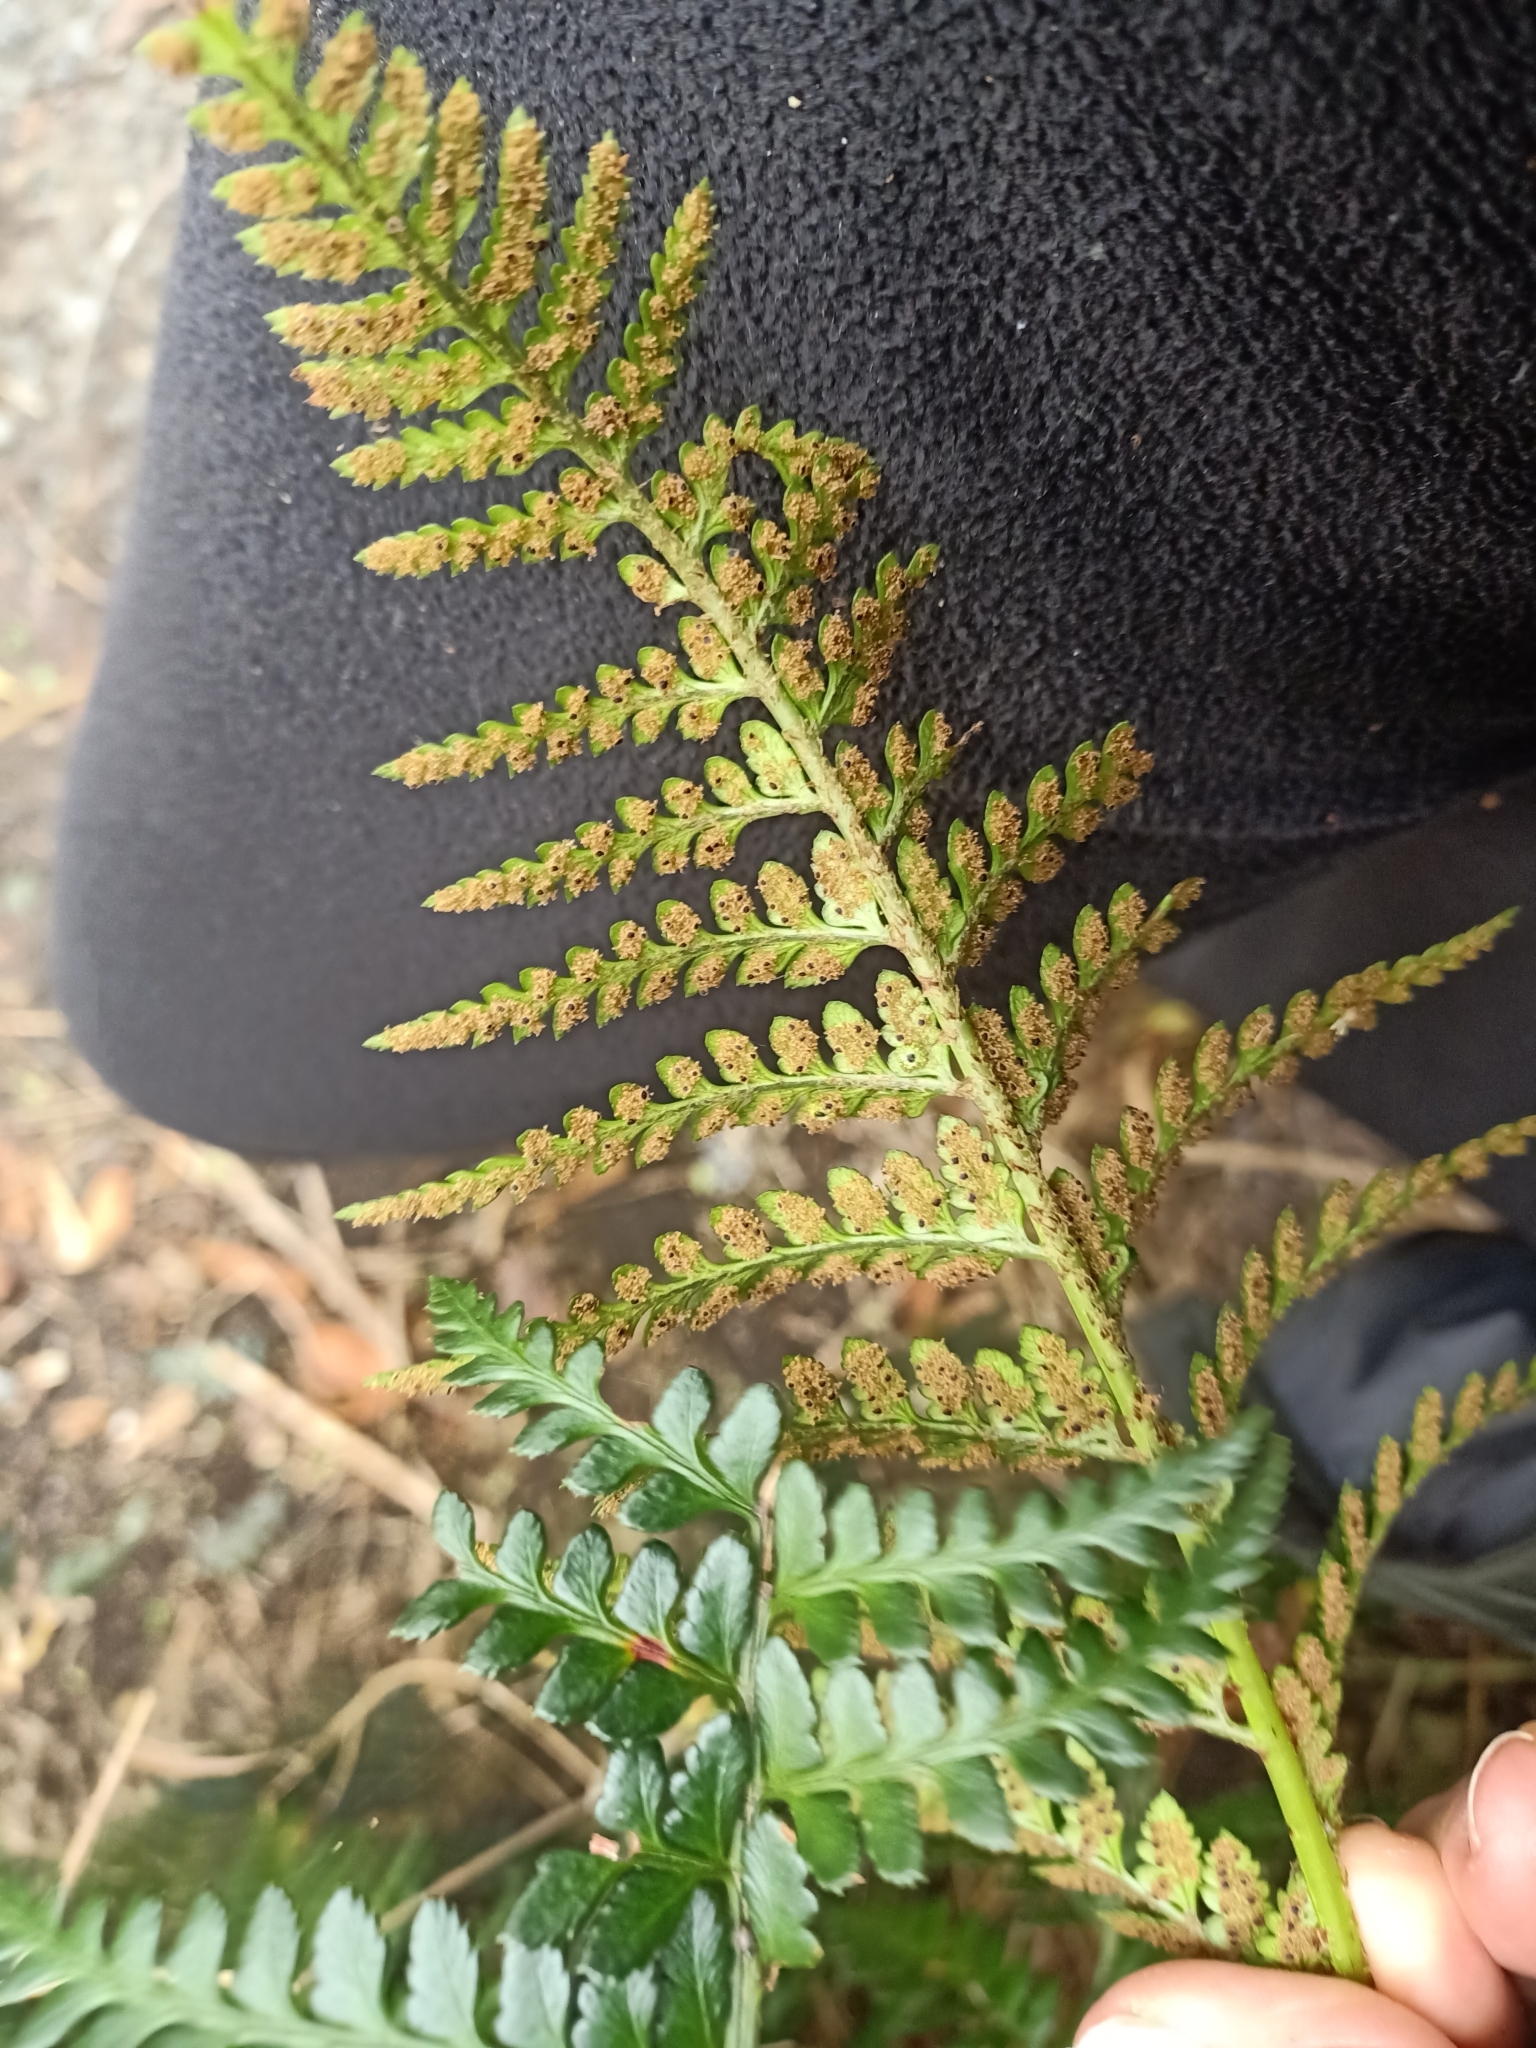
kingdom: Plantae
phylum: Tracheophyta
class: Polypodiopsida
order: Polypodiales
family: Dryopteridaceae
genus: Polystichum
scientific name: Polystichum oculatum
